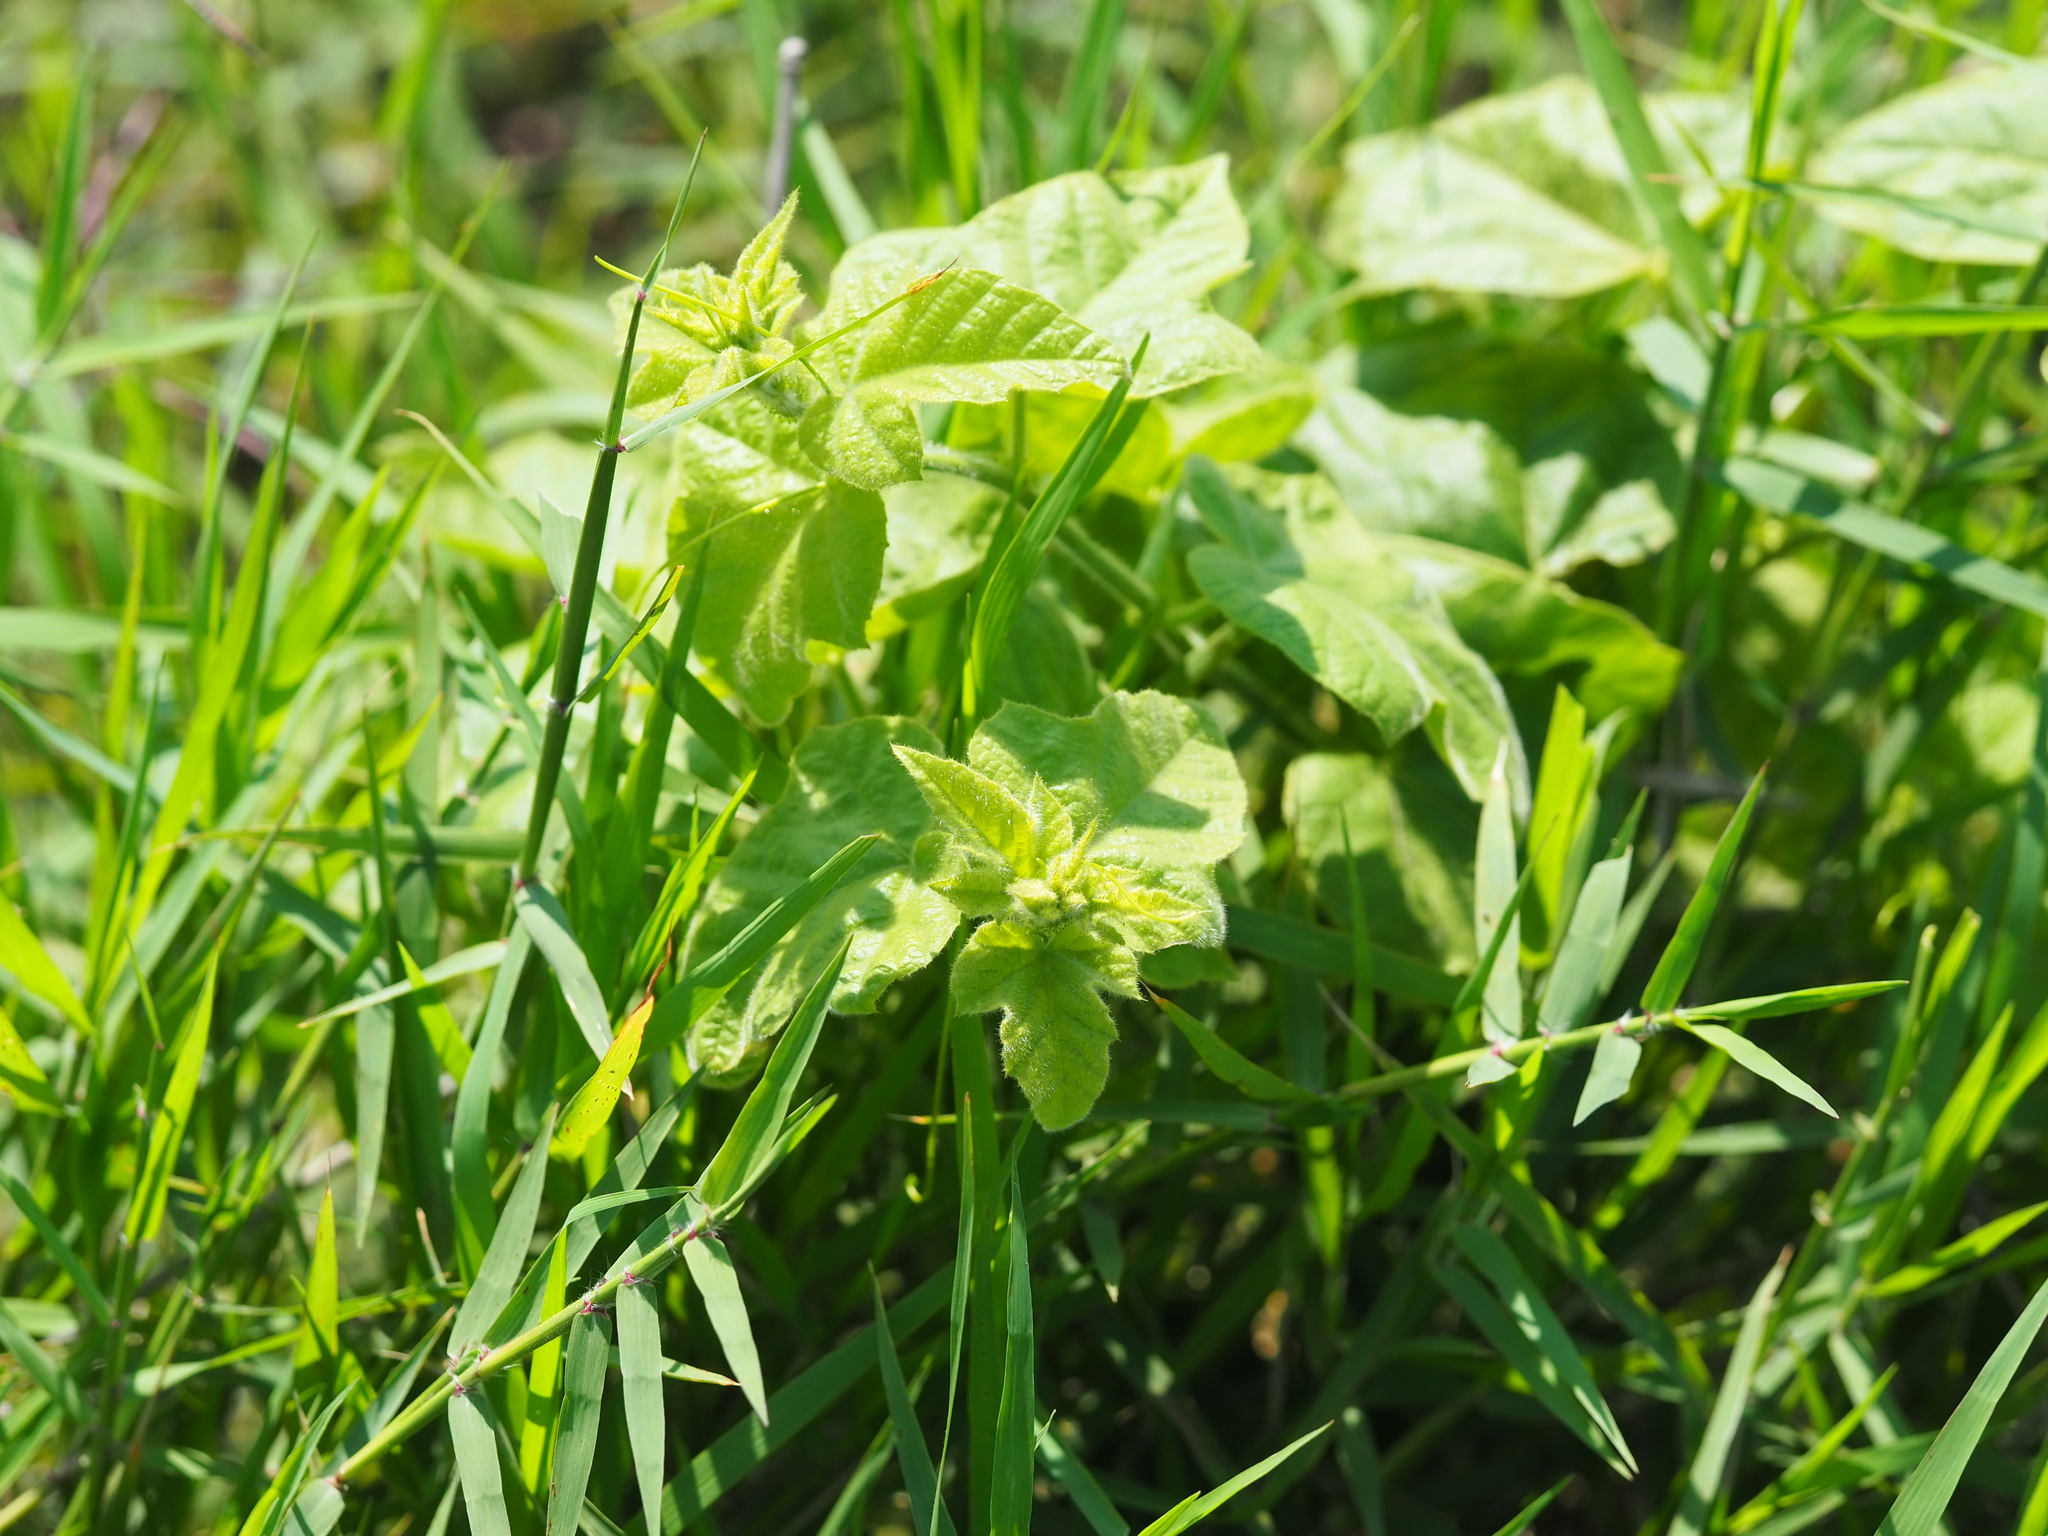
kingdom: Plantae
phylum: Tracheophyta
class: Magnoliopsida
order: Malpighiales
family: Passifloraceae
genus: Passiflora
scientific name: Passiflora vesicaria
